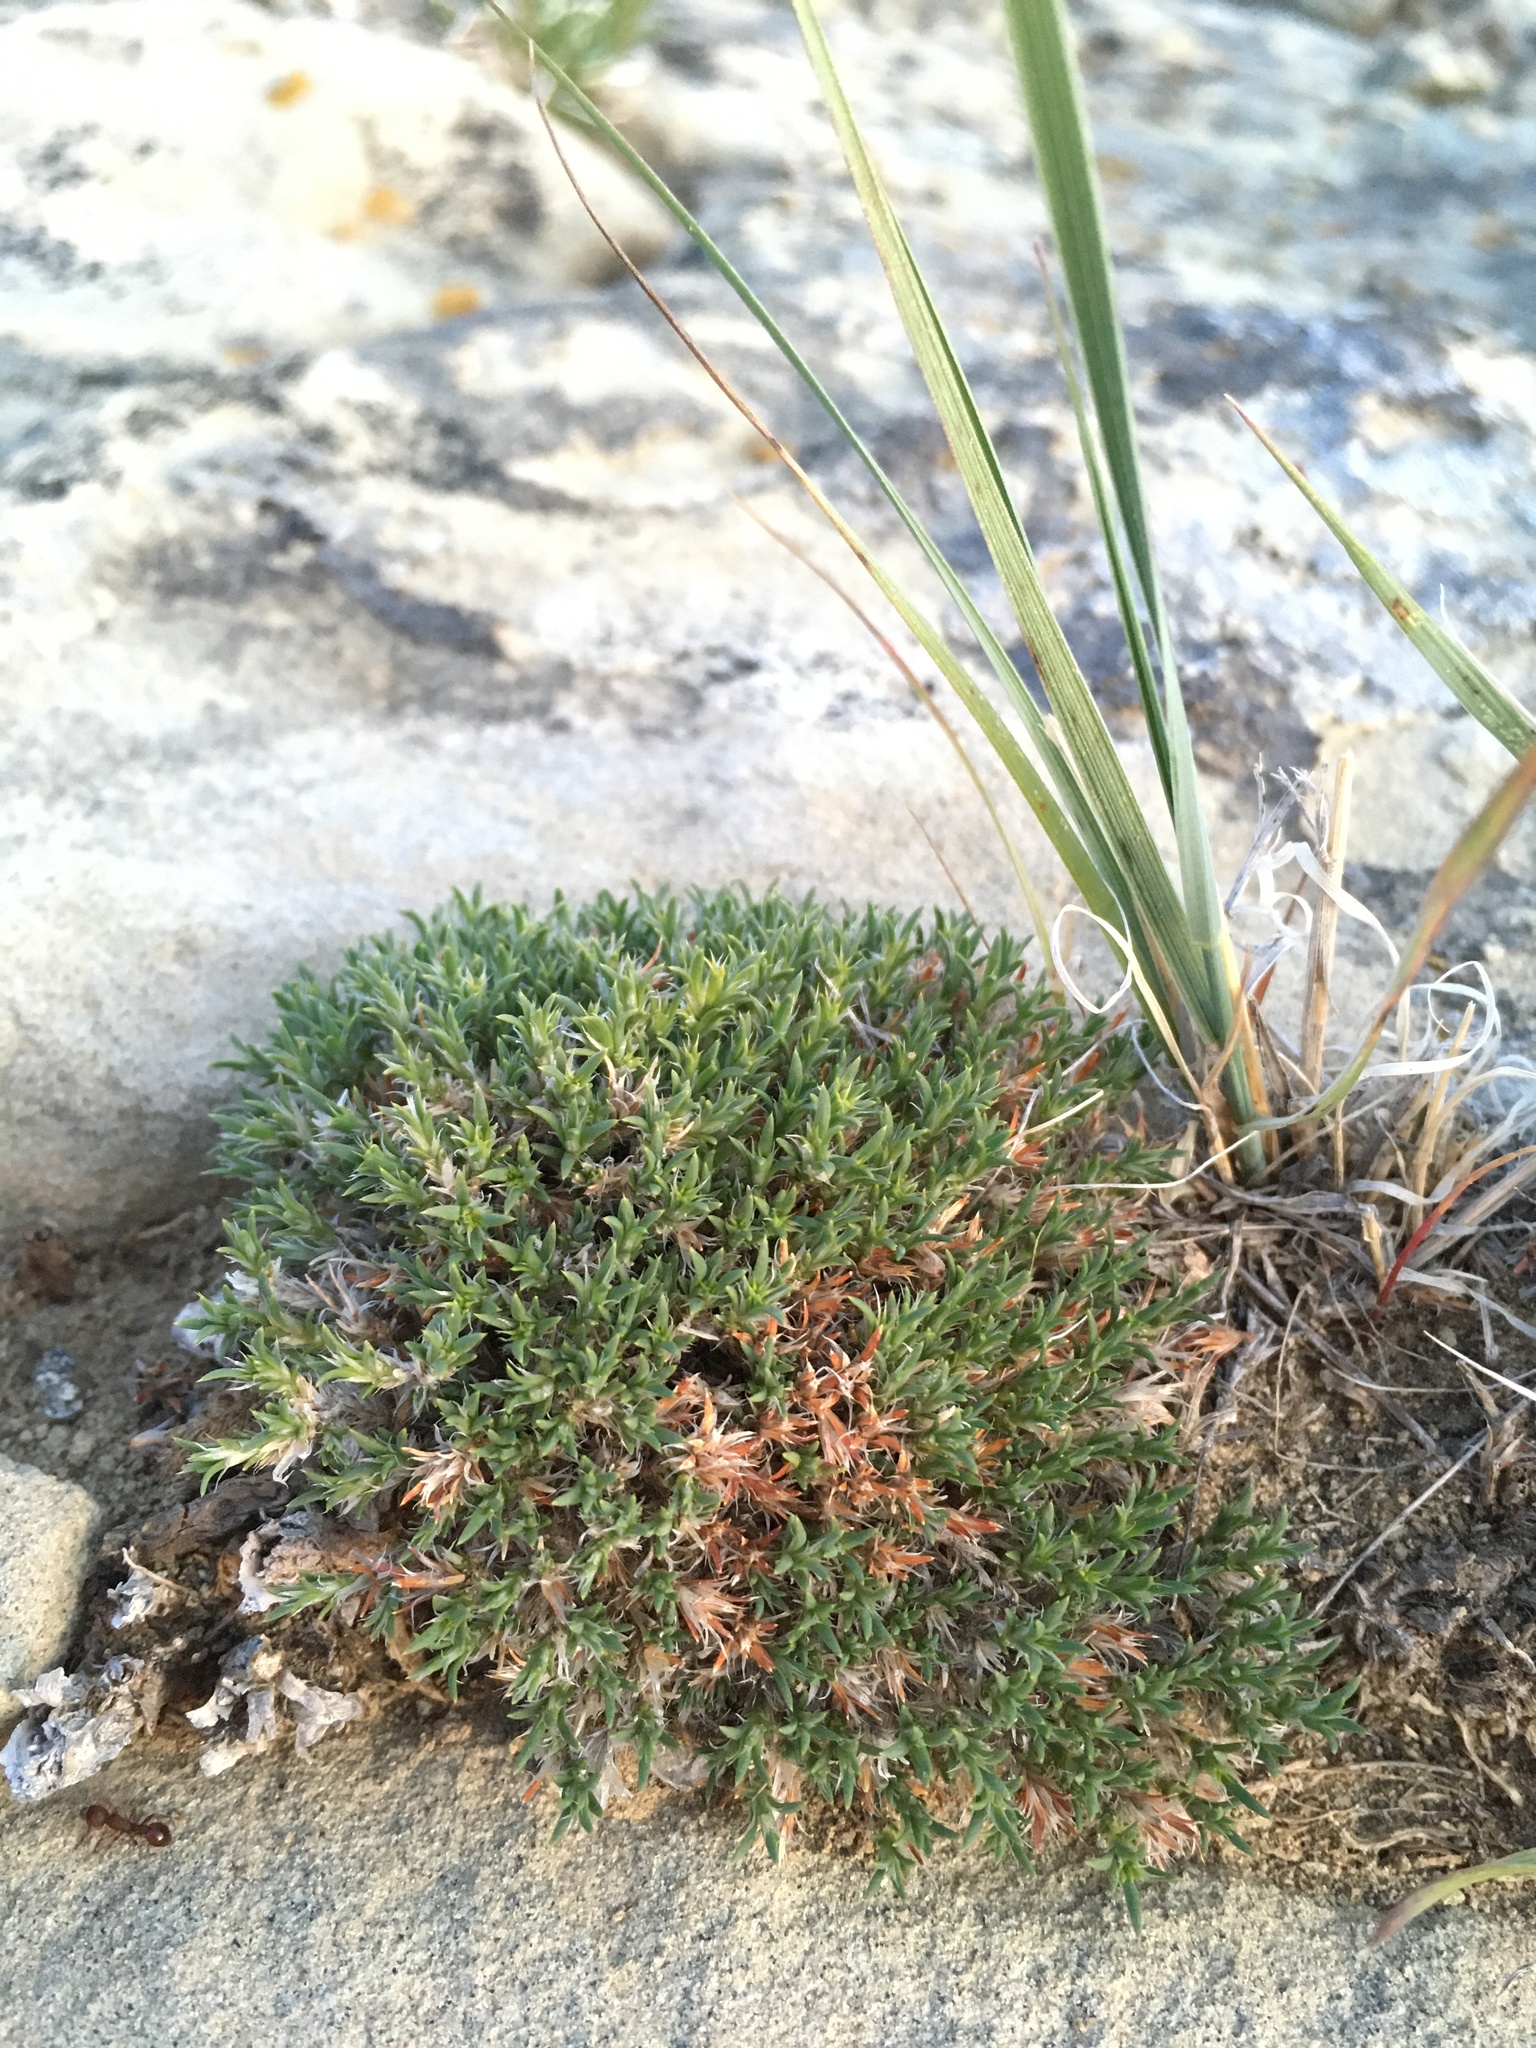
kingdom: Plantae
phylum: Tracheophyta
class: Magnoliopsida
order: Caryophyllales
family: Caryophyllaceae
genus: Paronychia
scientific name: Paronychia sessiliflora
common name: Creeping nailwort
